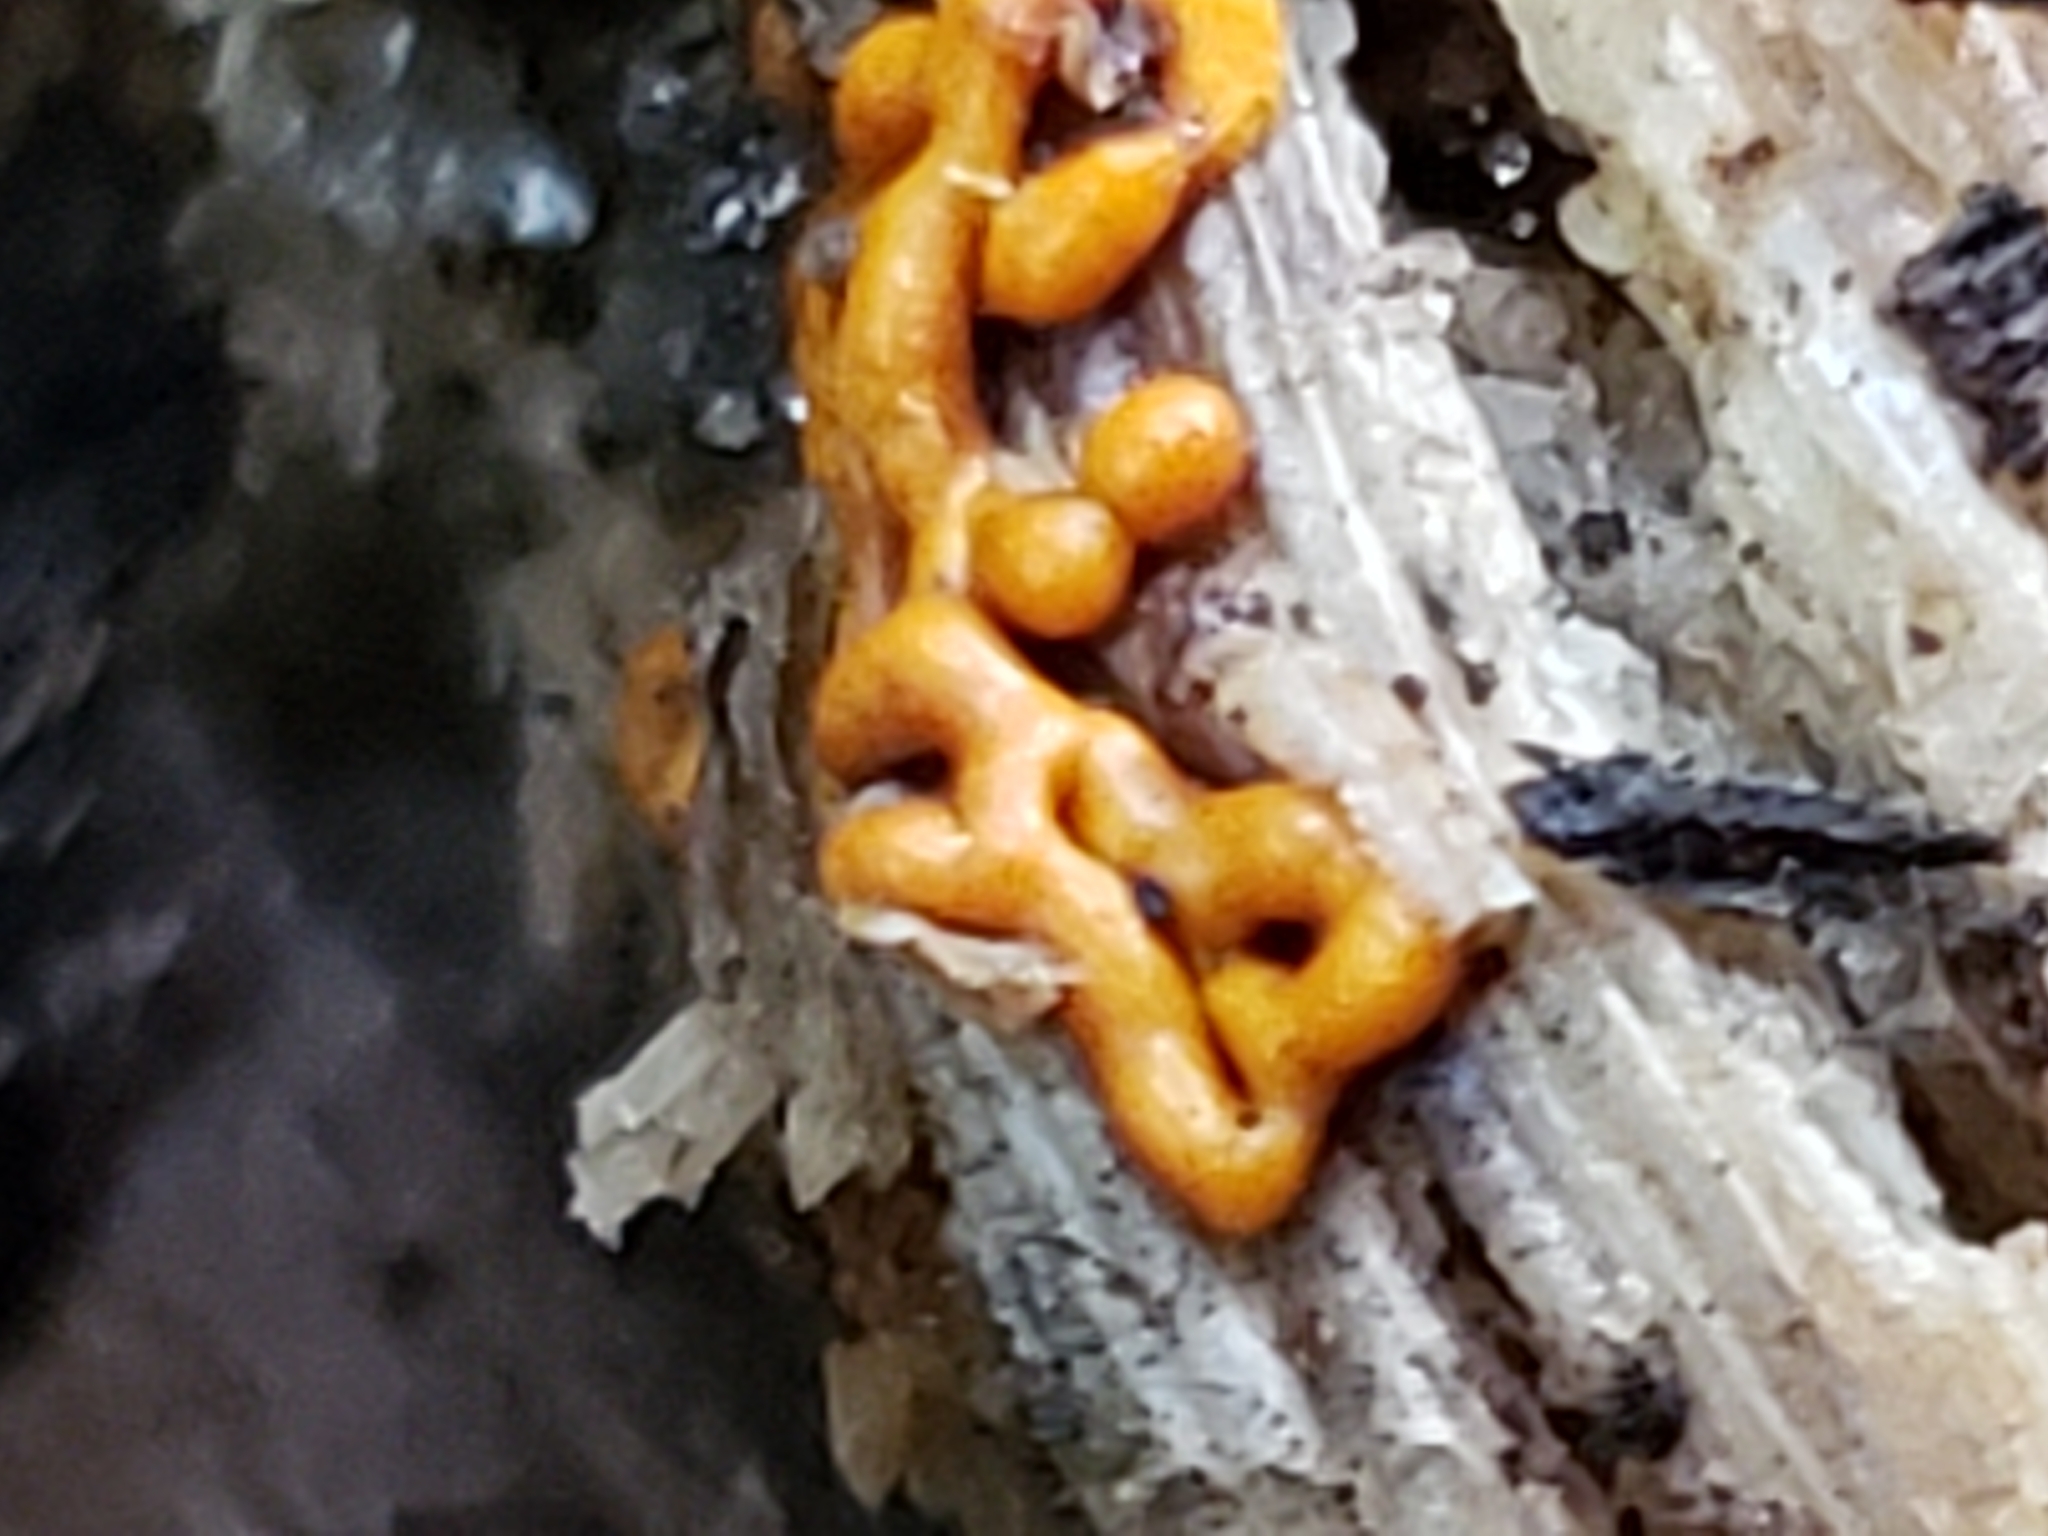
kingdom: Protozoa
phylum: Mycetozoa
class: Myxomycetes
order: Trichiales
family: Arcyriaceae
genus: Hemitrichia
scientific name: Hemitrichia serpula
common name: Pretzel slime mold
